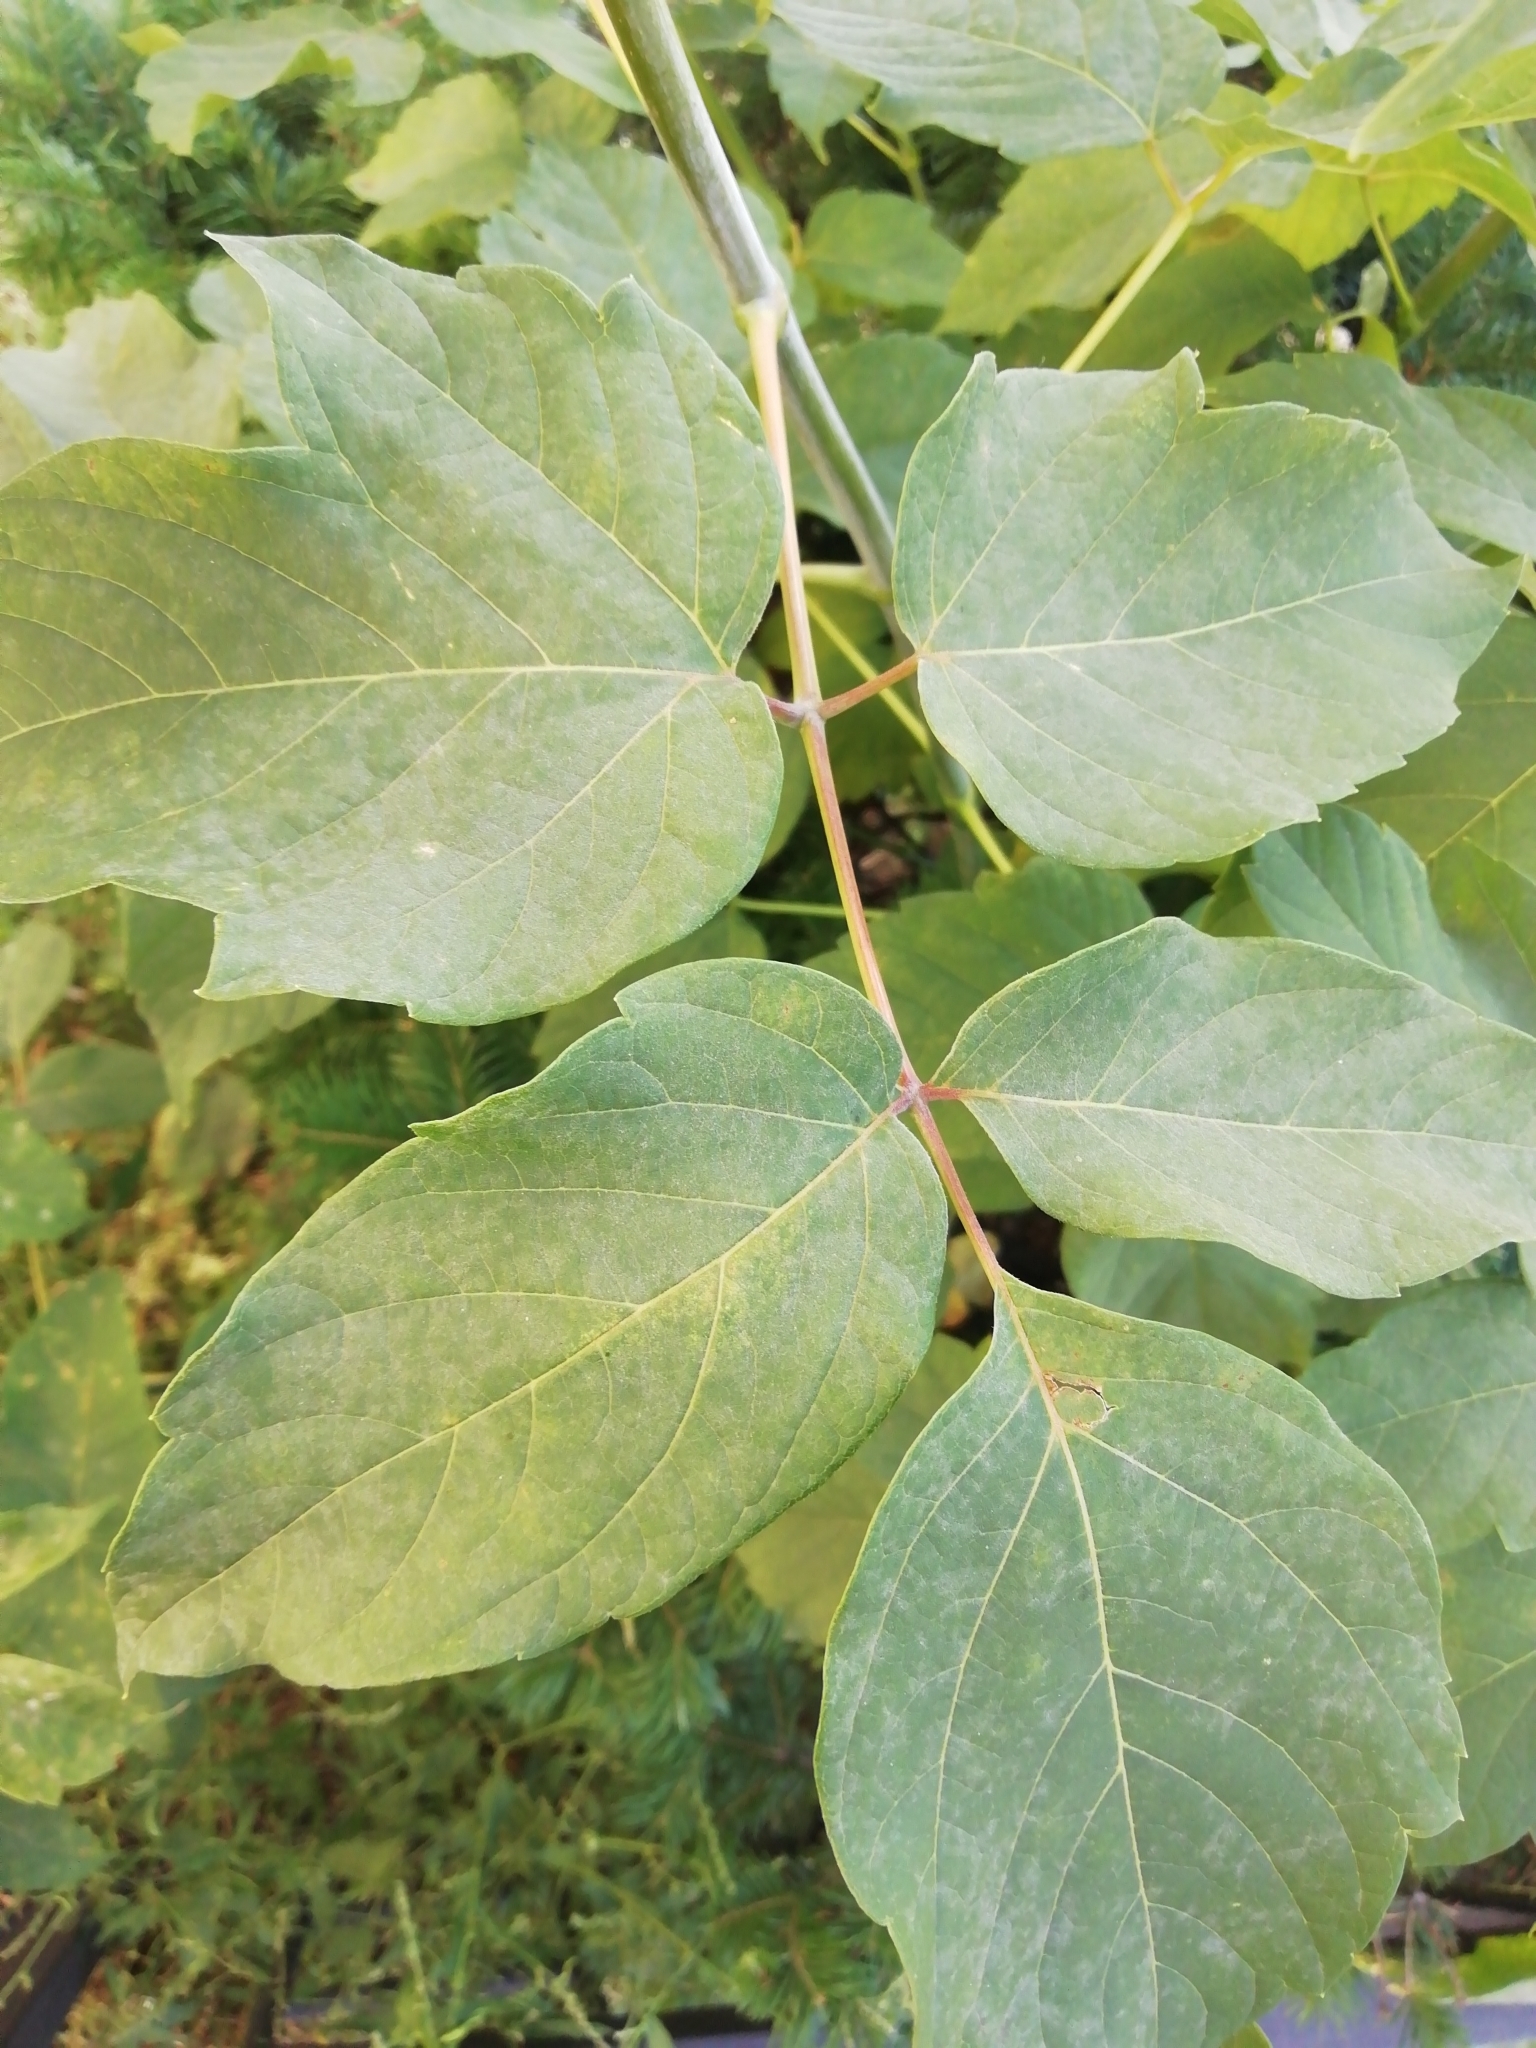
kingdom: Plantae
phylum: Tracheophyta
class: Magnoliopsida
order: Sapindales
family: Sapindaceae
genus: Acer
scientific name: Acer negundo
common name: Ashleaf maple
